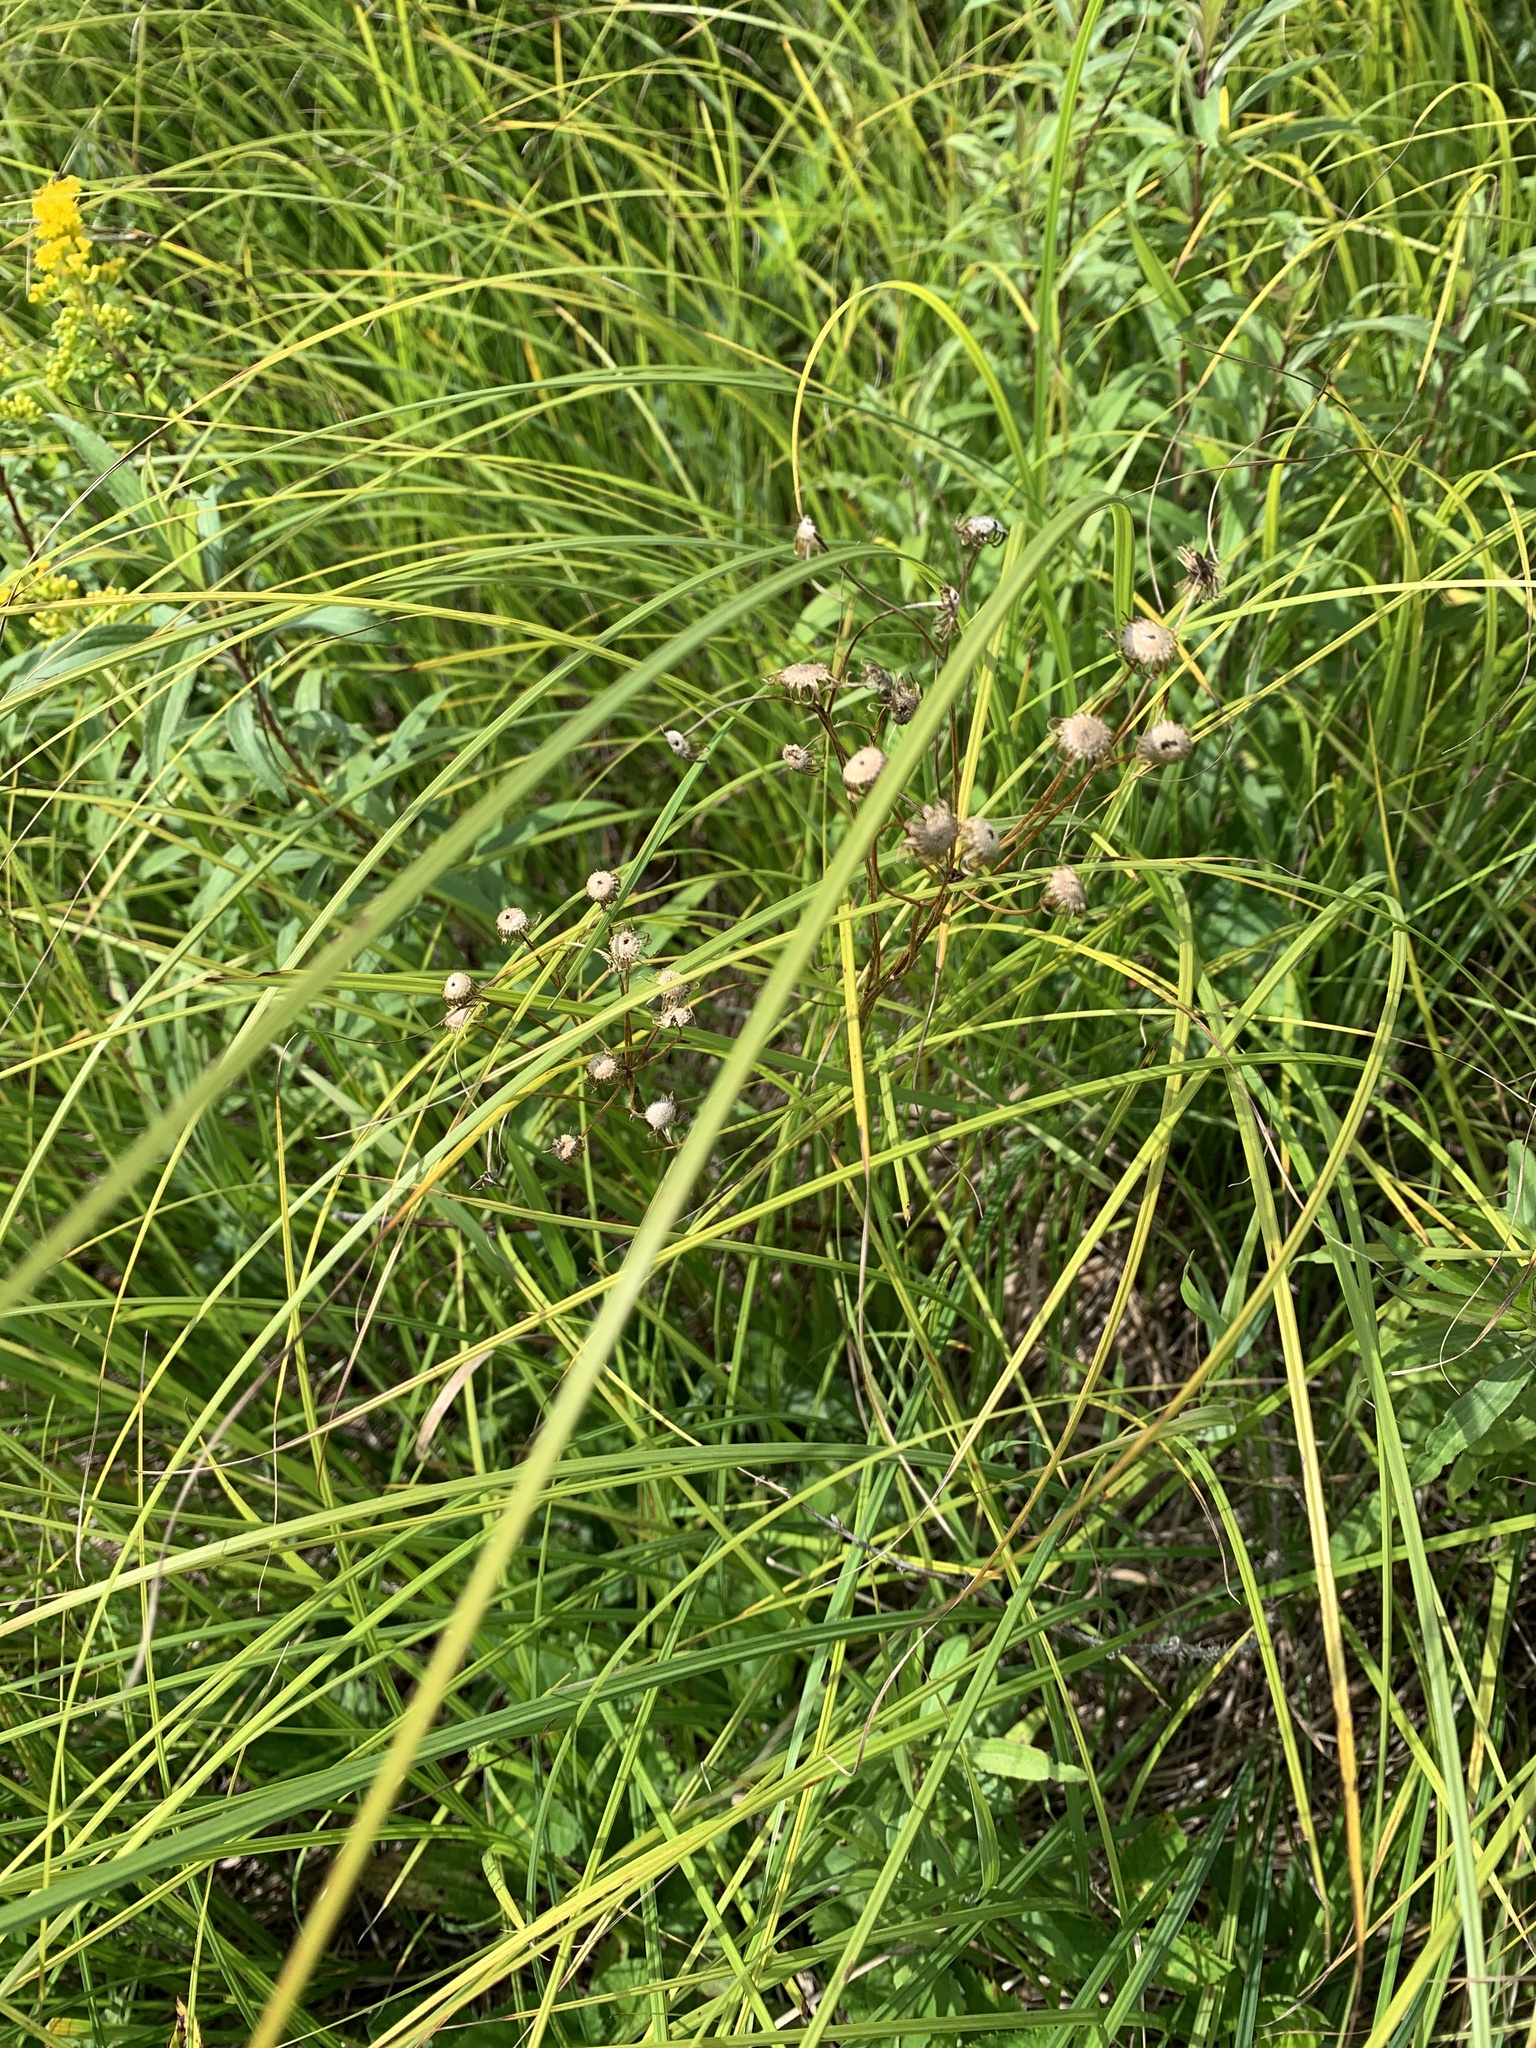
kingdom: Plantae
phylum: Tracheophyta
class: Magnoliopsida
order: Asterales
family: Asteraceae
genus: Packera
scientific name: Packera schweinitziana
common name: Schweinitz's ragwort
